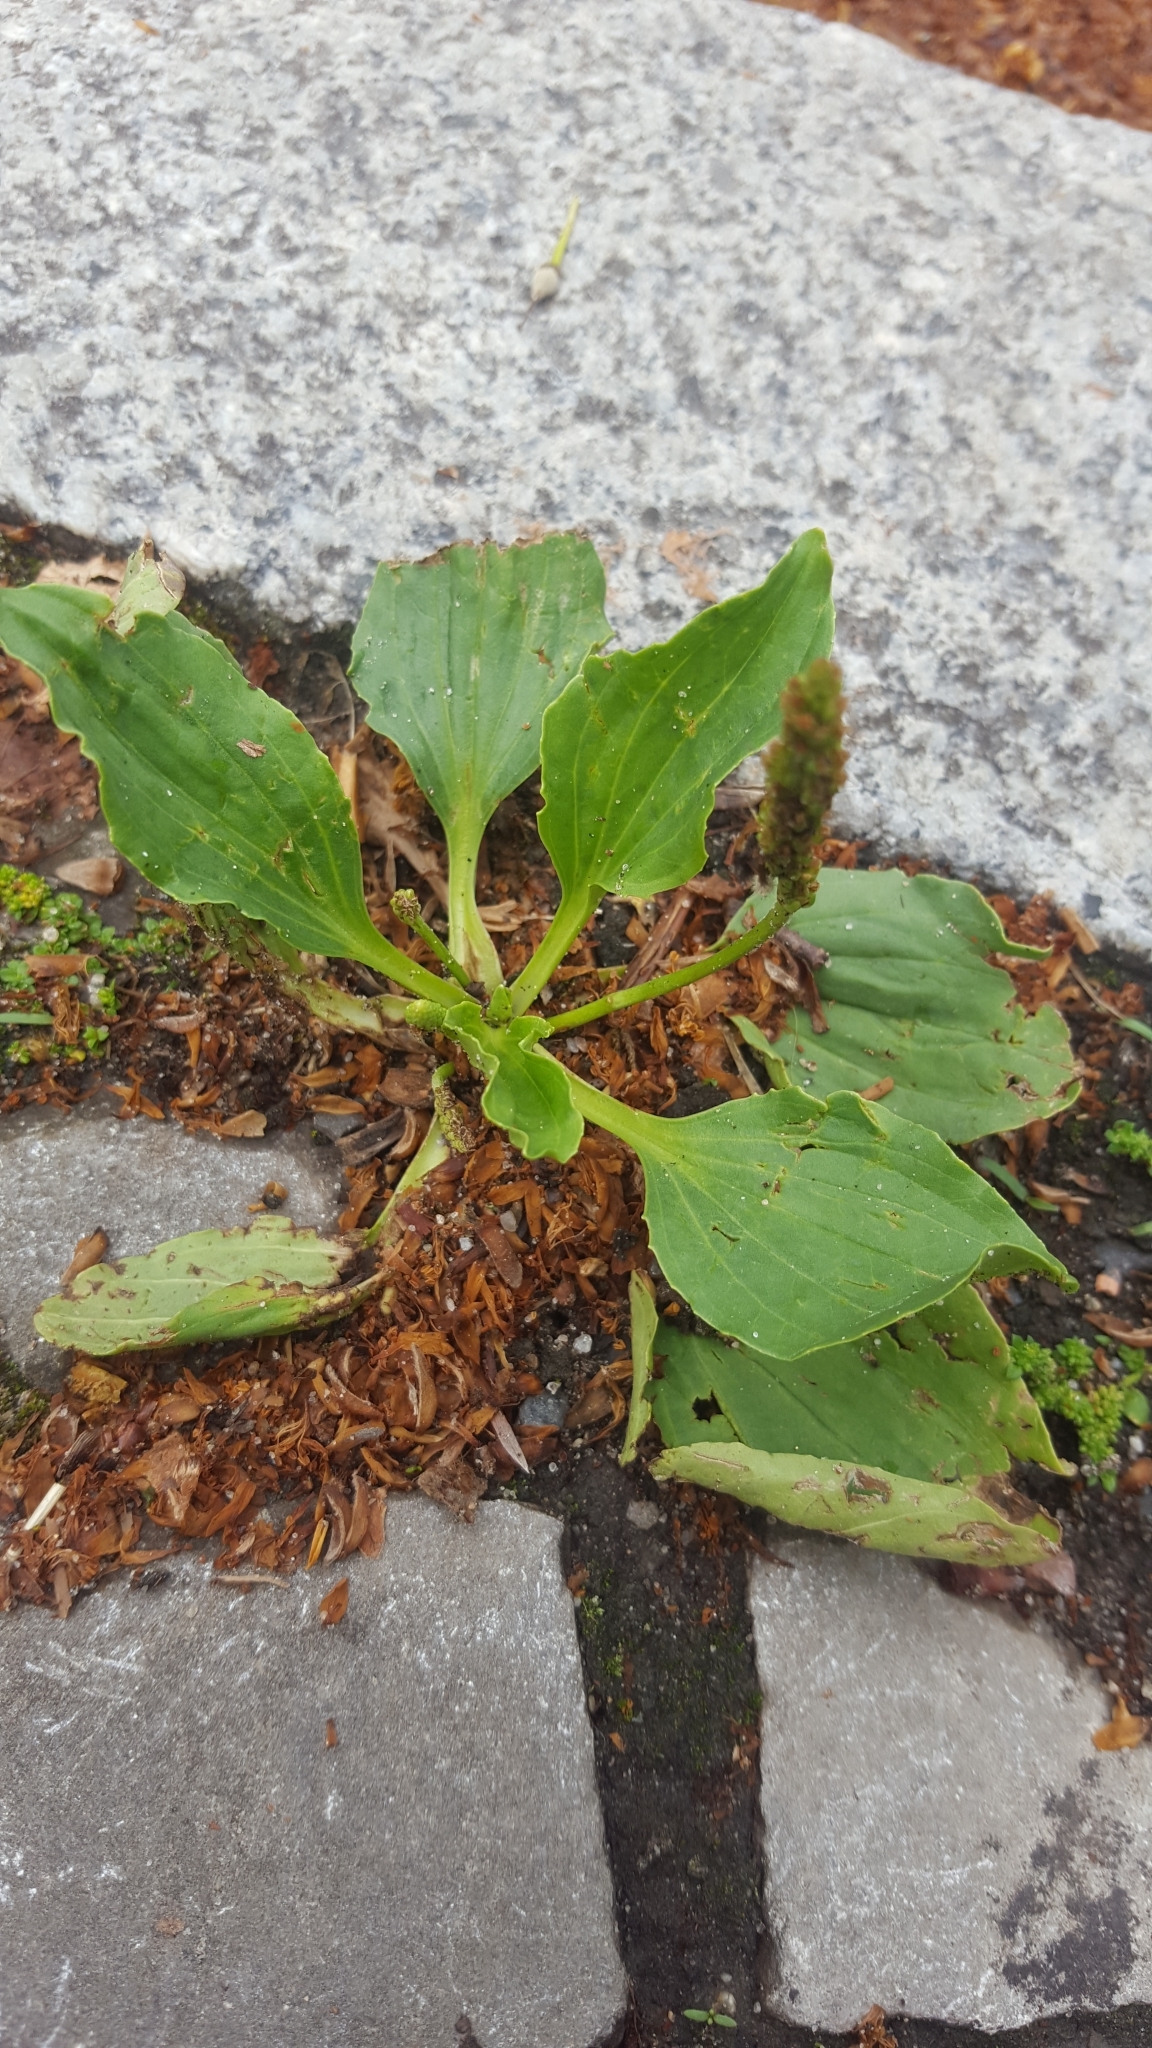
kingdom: Plantae
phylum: Tracheophyta
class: Magnoliopsida
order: Lamiales
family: Plantaginaceae
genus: Plantago
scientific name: Plantago major
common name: Common plantain
